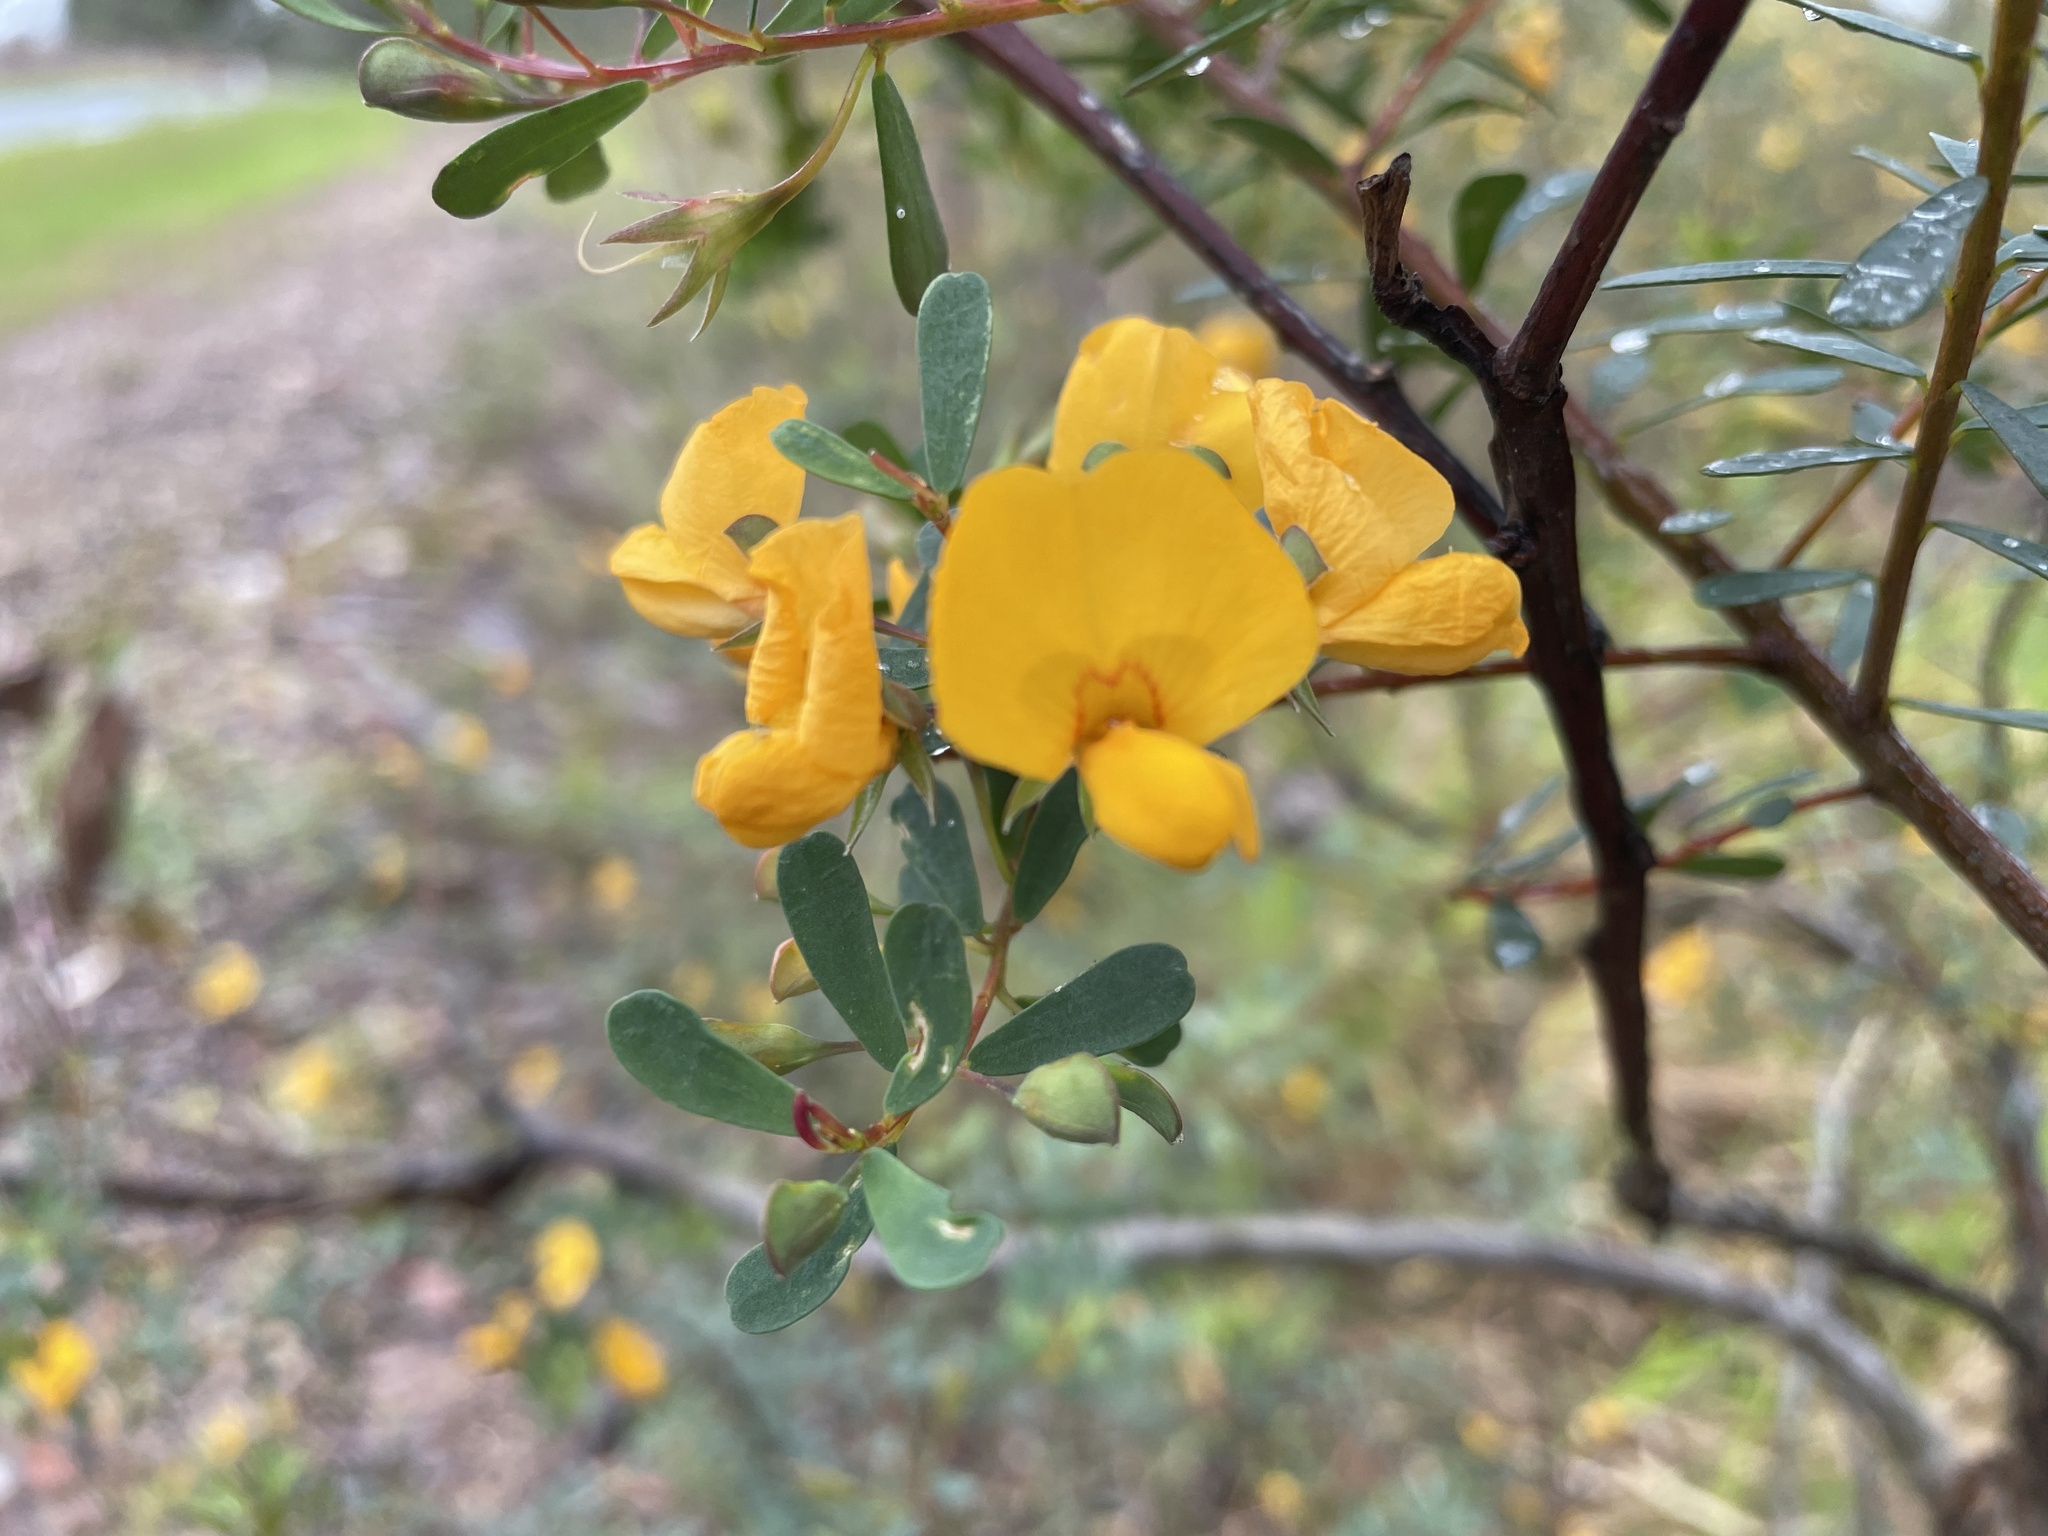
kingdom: Plantae
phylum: Tracheophyta
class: Magnoliopsida
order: Fabales
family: Fabaceae
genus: Pultenaea
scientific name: Pultenaea euchila
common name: Large-flower bush-pea
